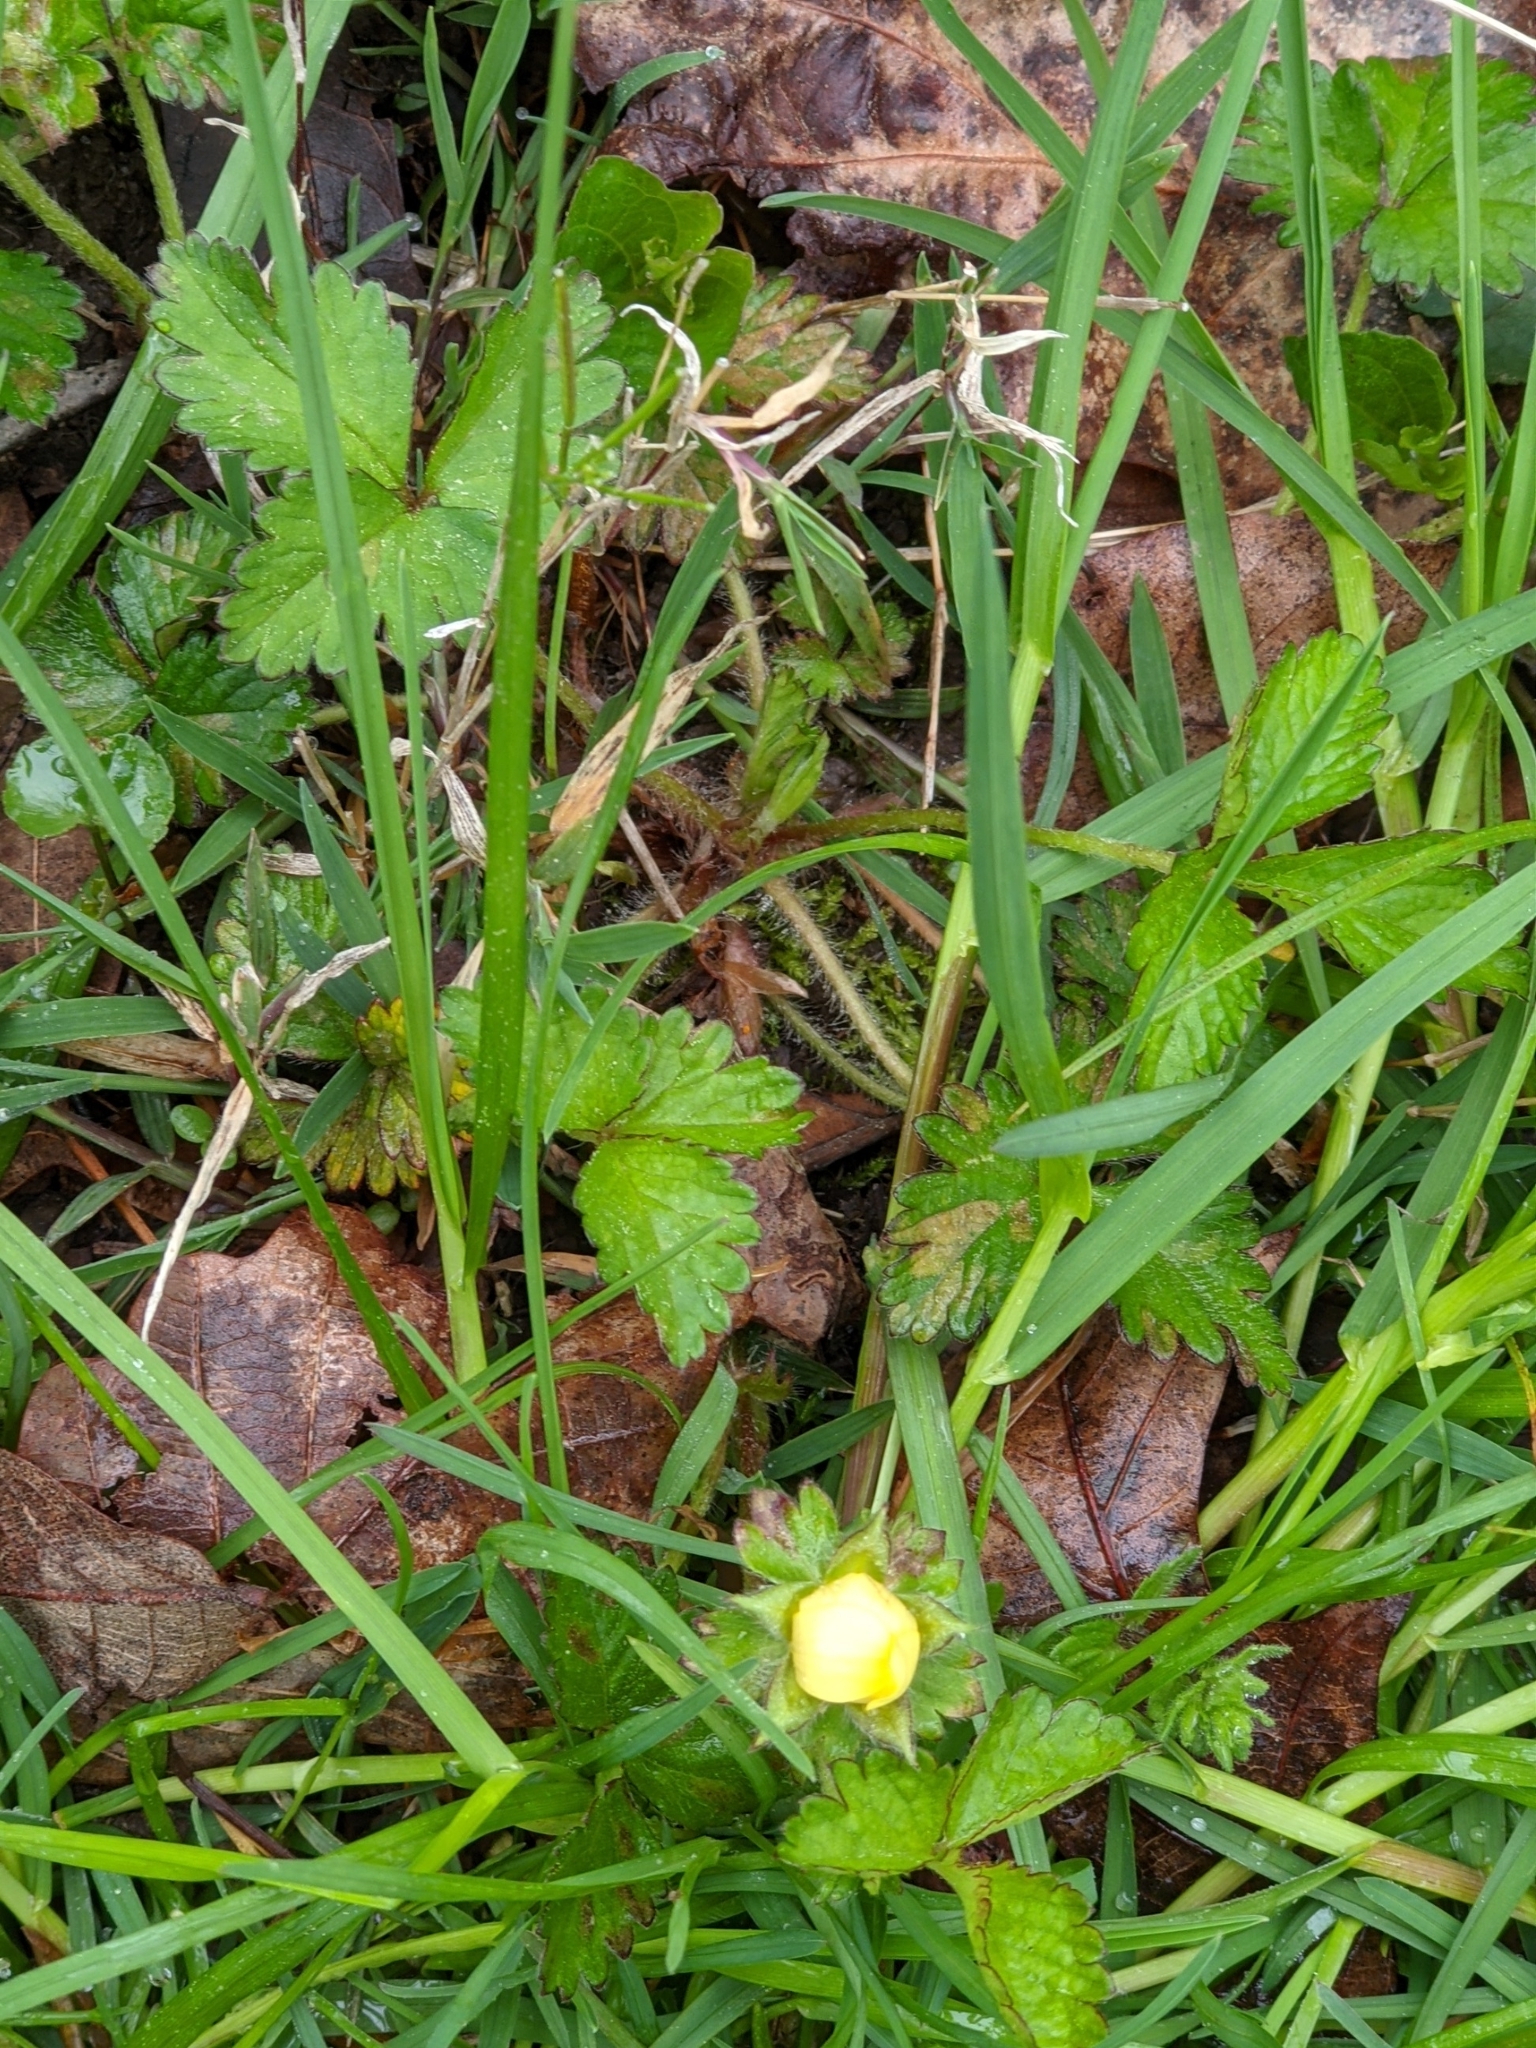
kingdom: Plantae
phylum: Tracheophyta
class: Magnoliopsida
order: Rosales
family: Rosaceae
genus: Potentilla
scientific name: Potentilla indica
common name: Yellow-flowered strawberry
